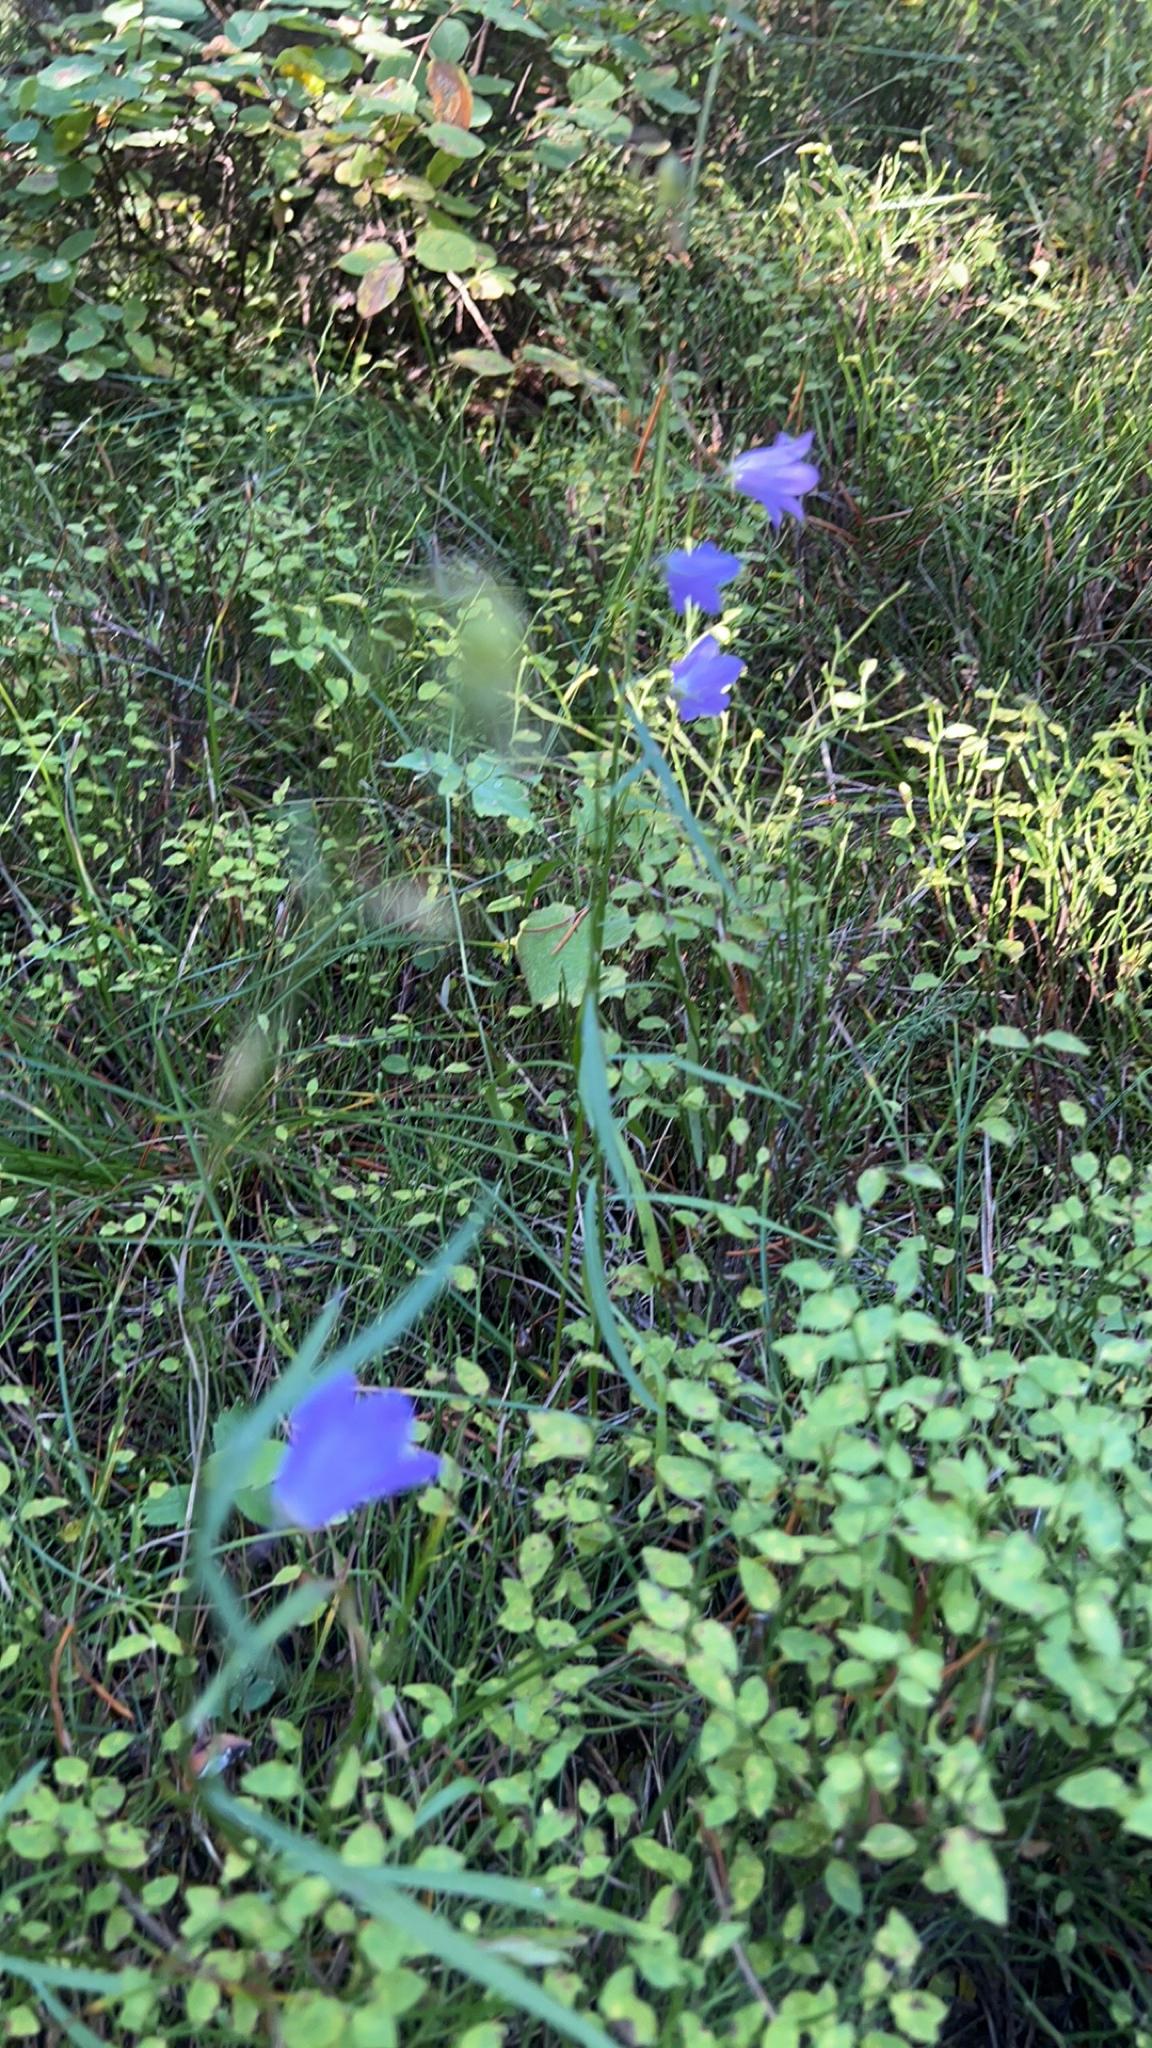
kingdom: Plantae
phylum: Tracheophyta
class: Magnoliopsida
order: Asterales
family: Campanulaceae
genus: Campanula
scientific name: Campanula petiolata
